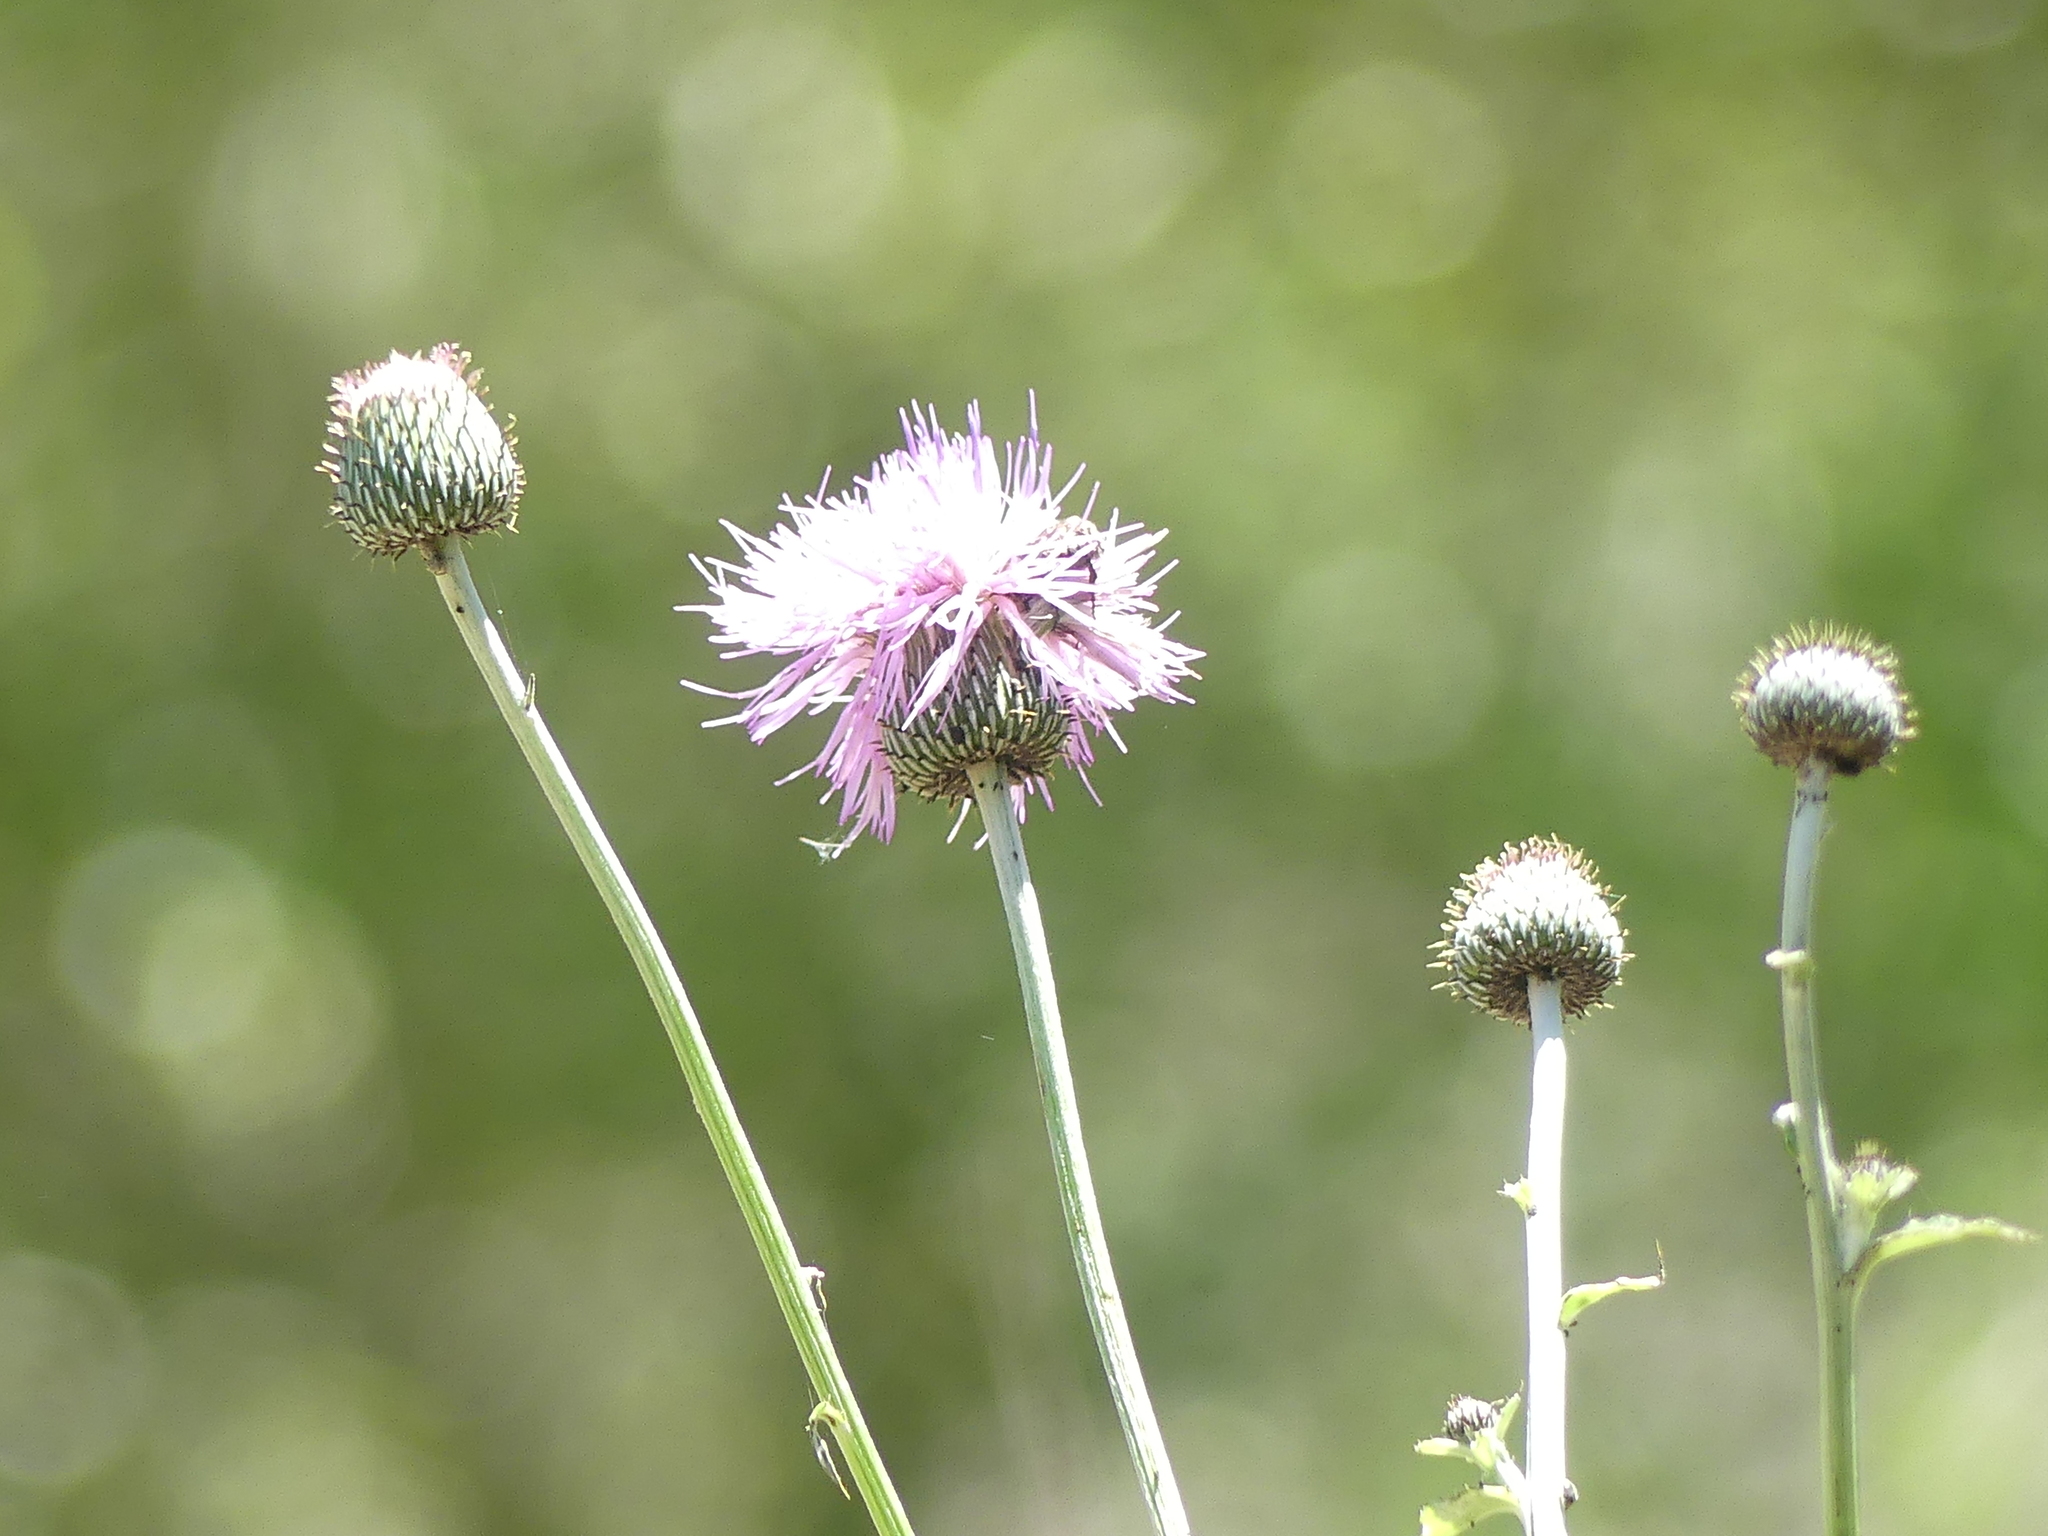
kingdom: Plantae
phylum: Tracheophyta
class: Magnoliopsida
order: Asterales
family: Asteraceae
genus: Cirsium
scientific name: Cirsium texanum
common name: Texas purple thistle
